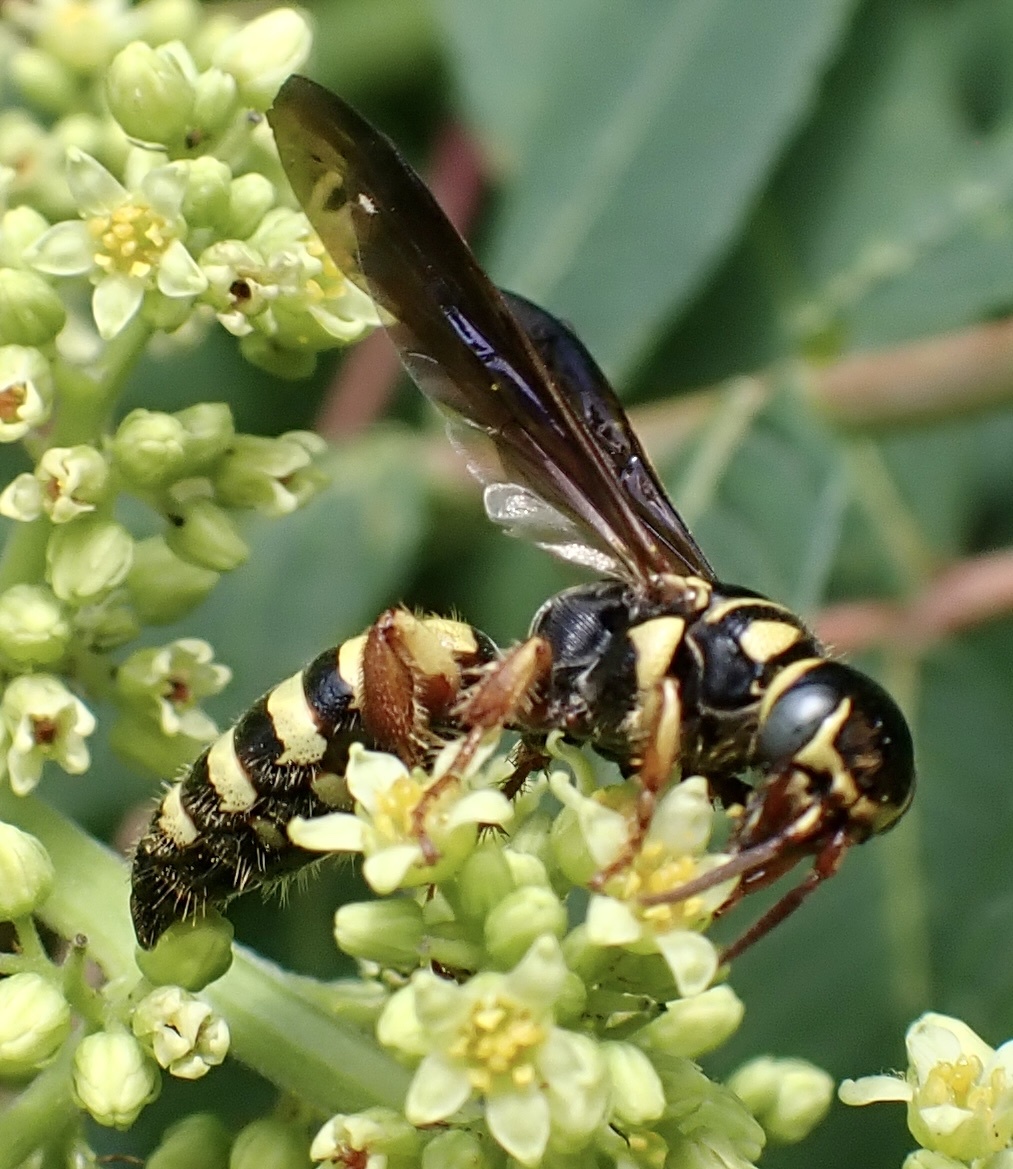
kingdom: Animalia
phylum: Arthropoda
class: Insecta
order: Hymenoptera
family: Tiphiidae
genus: Myzinum
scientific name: Myzinum quinquecinctum
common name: Five-banded thynnid wasp
